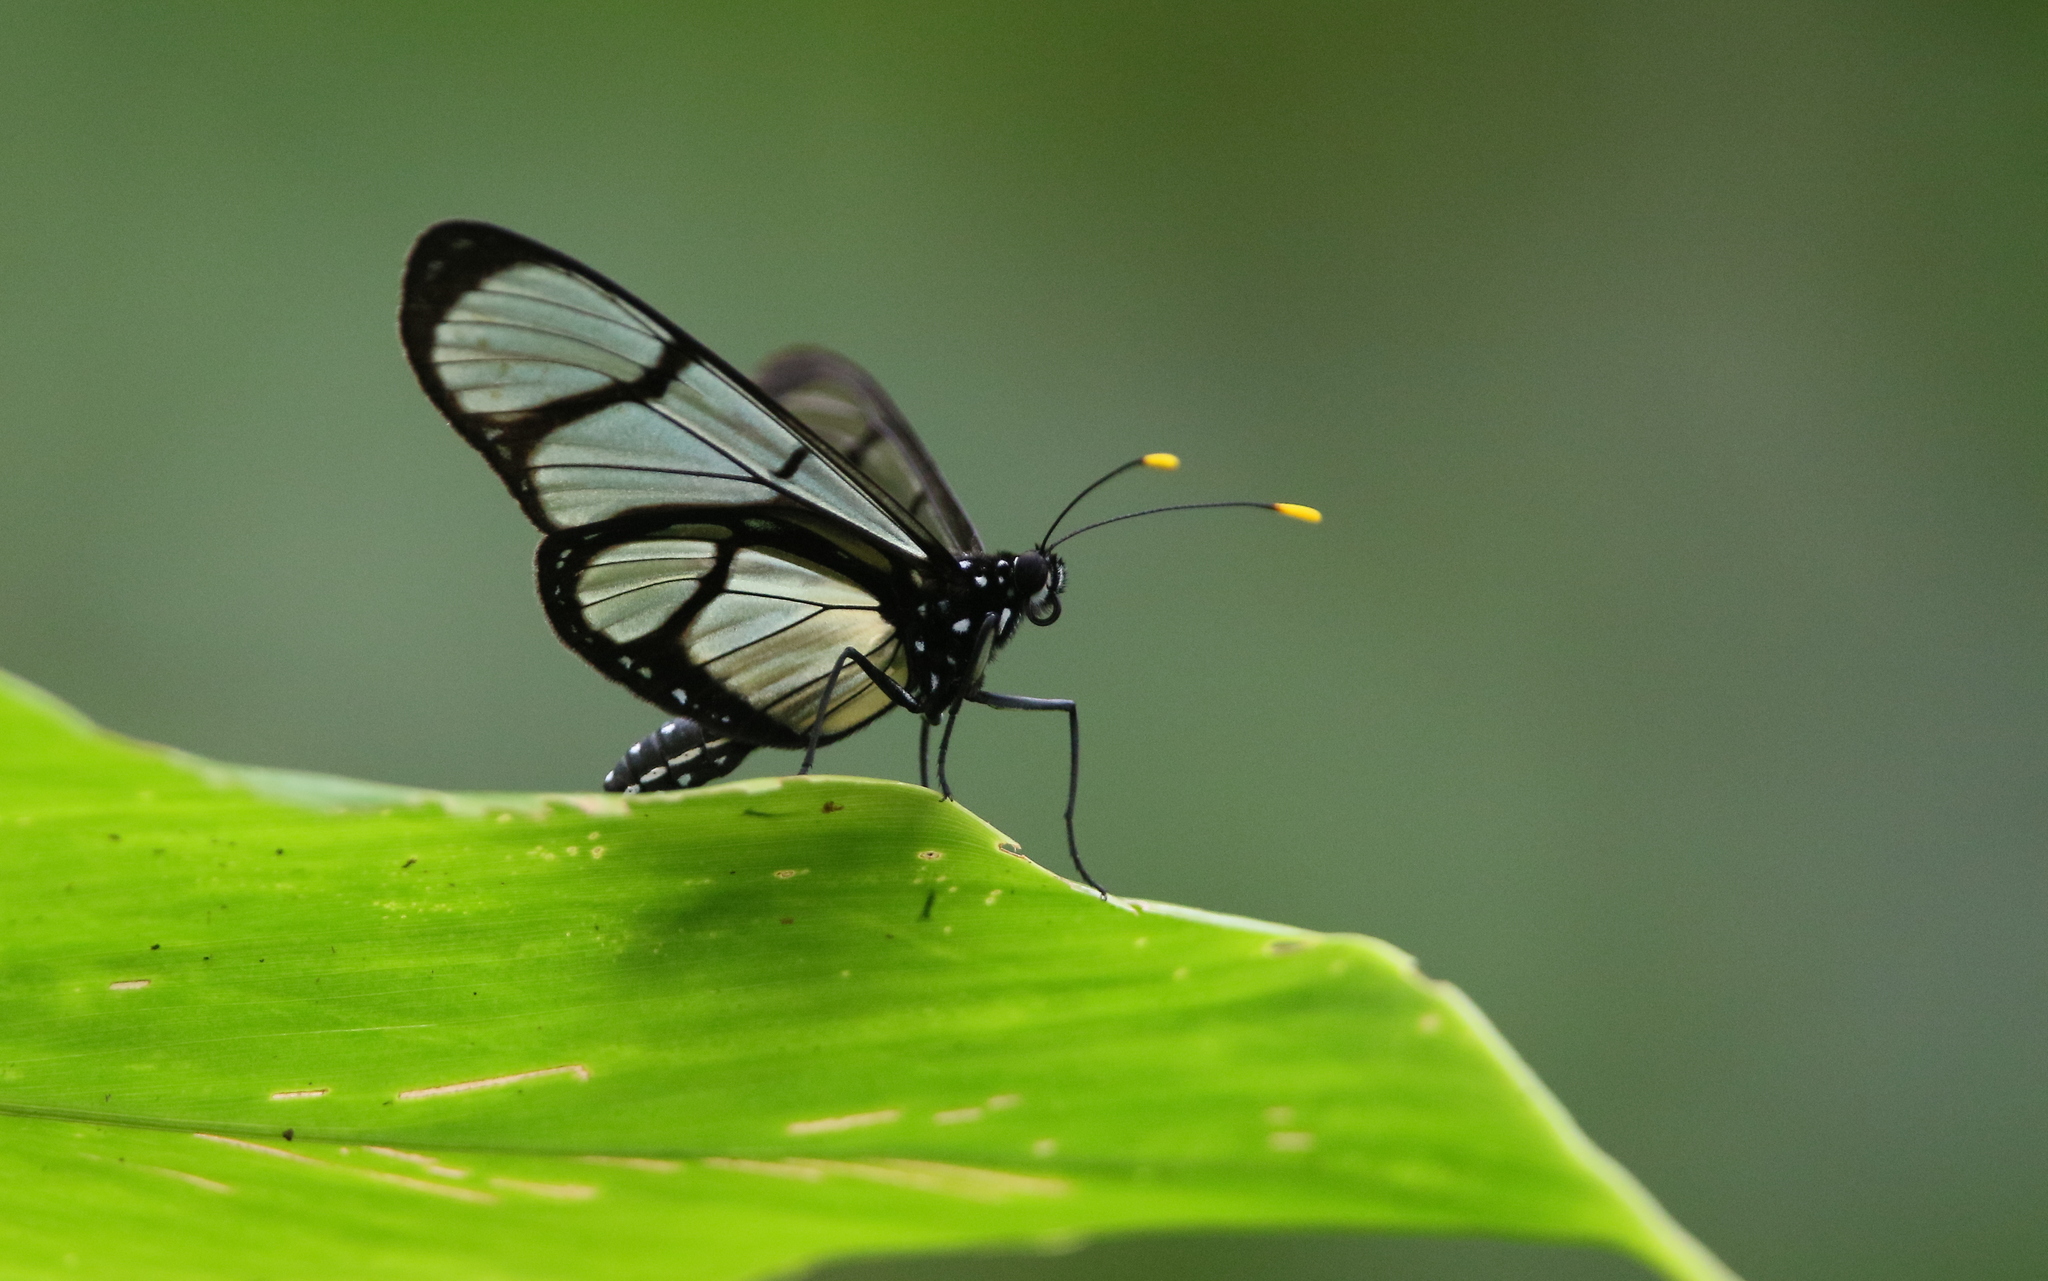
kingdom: Animalia
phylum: Arthropoda
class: Insecta
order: Lepidoptera
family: Nymphalidae
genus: Methona
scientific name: Methona confusa
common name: Confusa tigerwing
